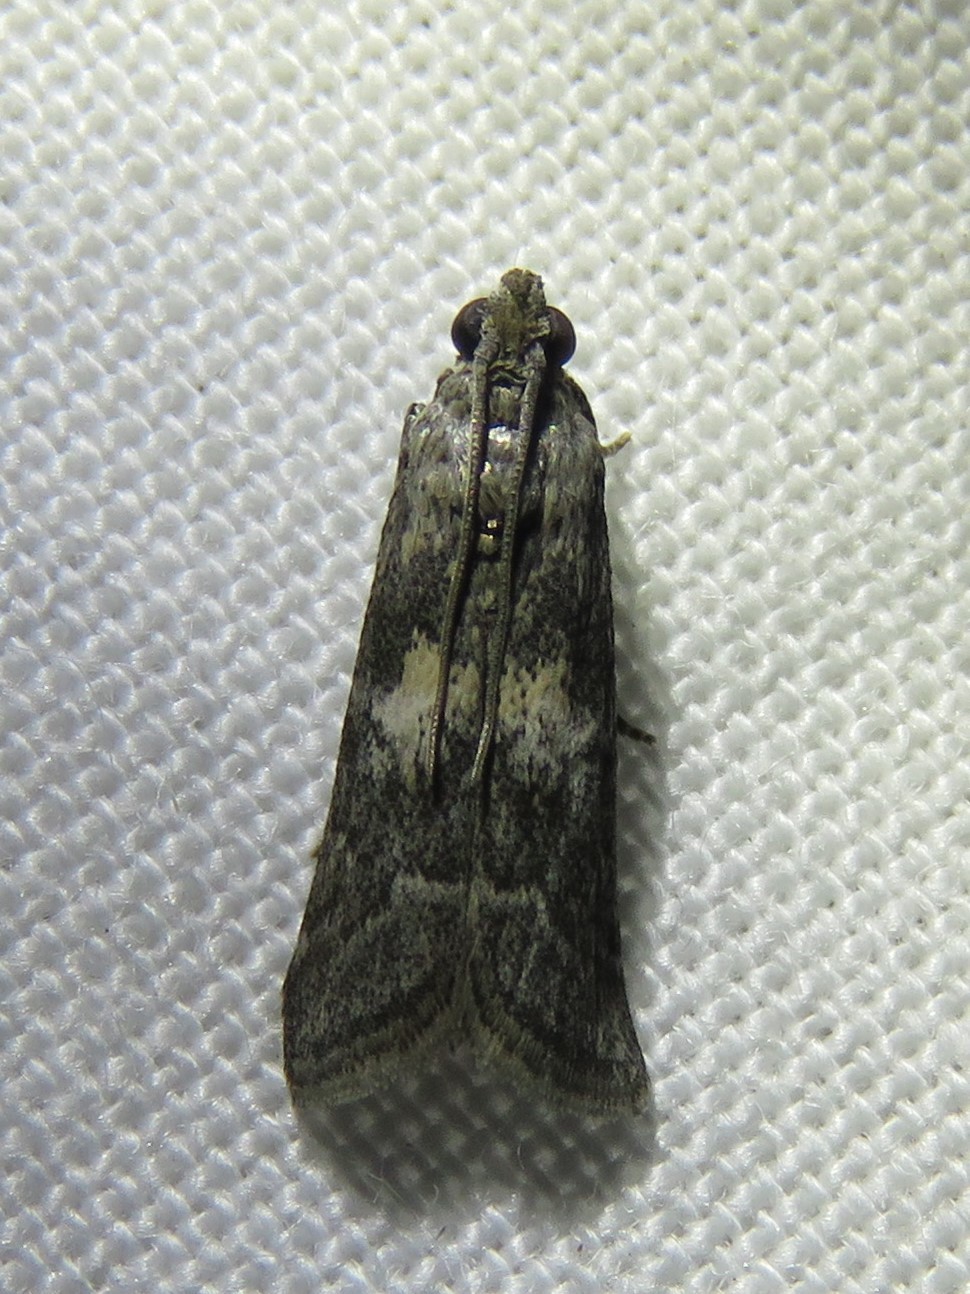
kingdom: Animalia
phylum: Arthropoda
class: Insecta
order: Lepidoptera
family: Pyralidae
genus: Tacoma
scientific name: Tacoma feriella
